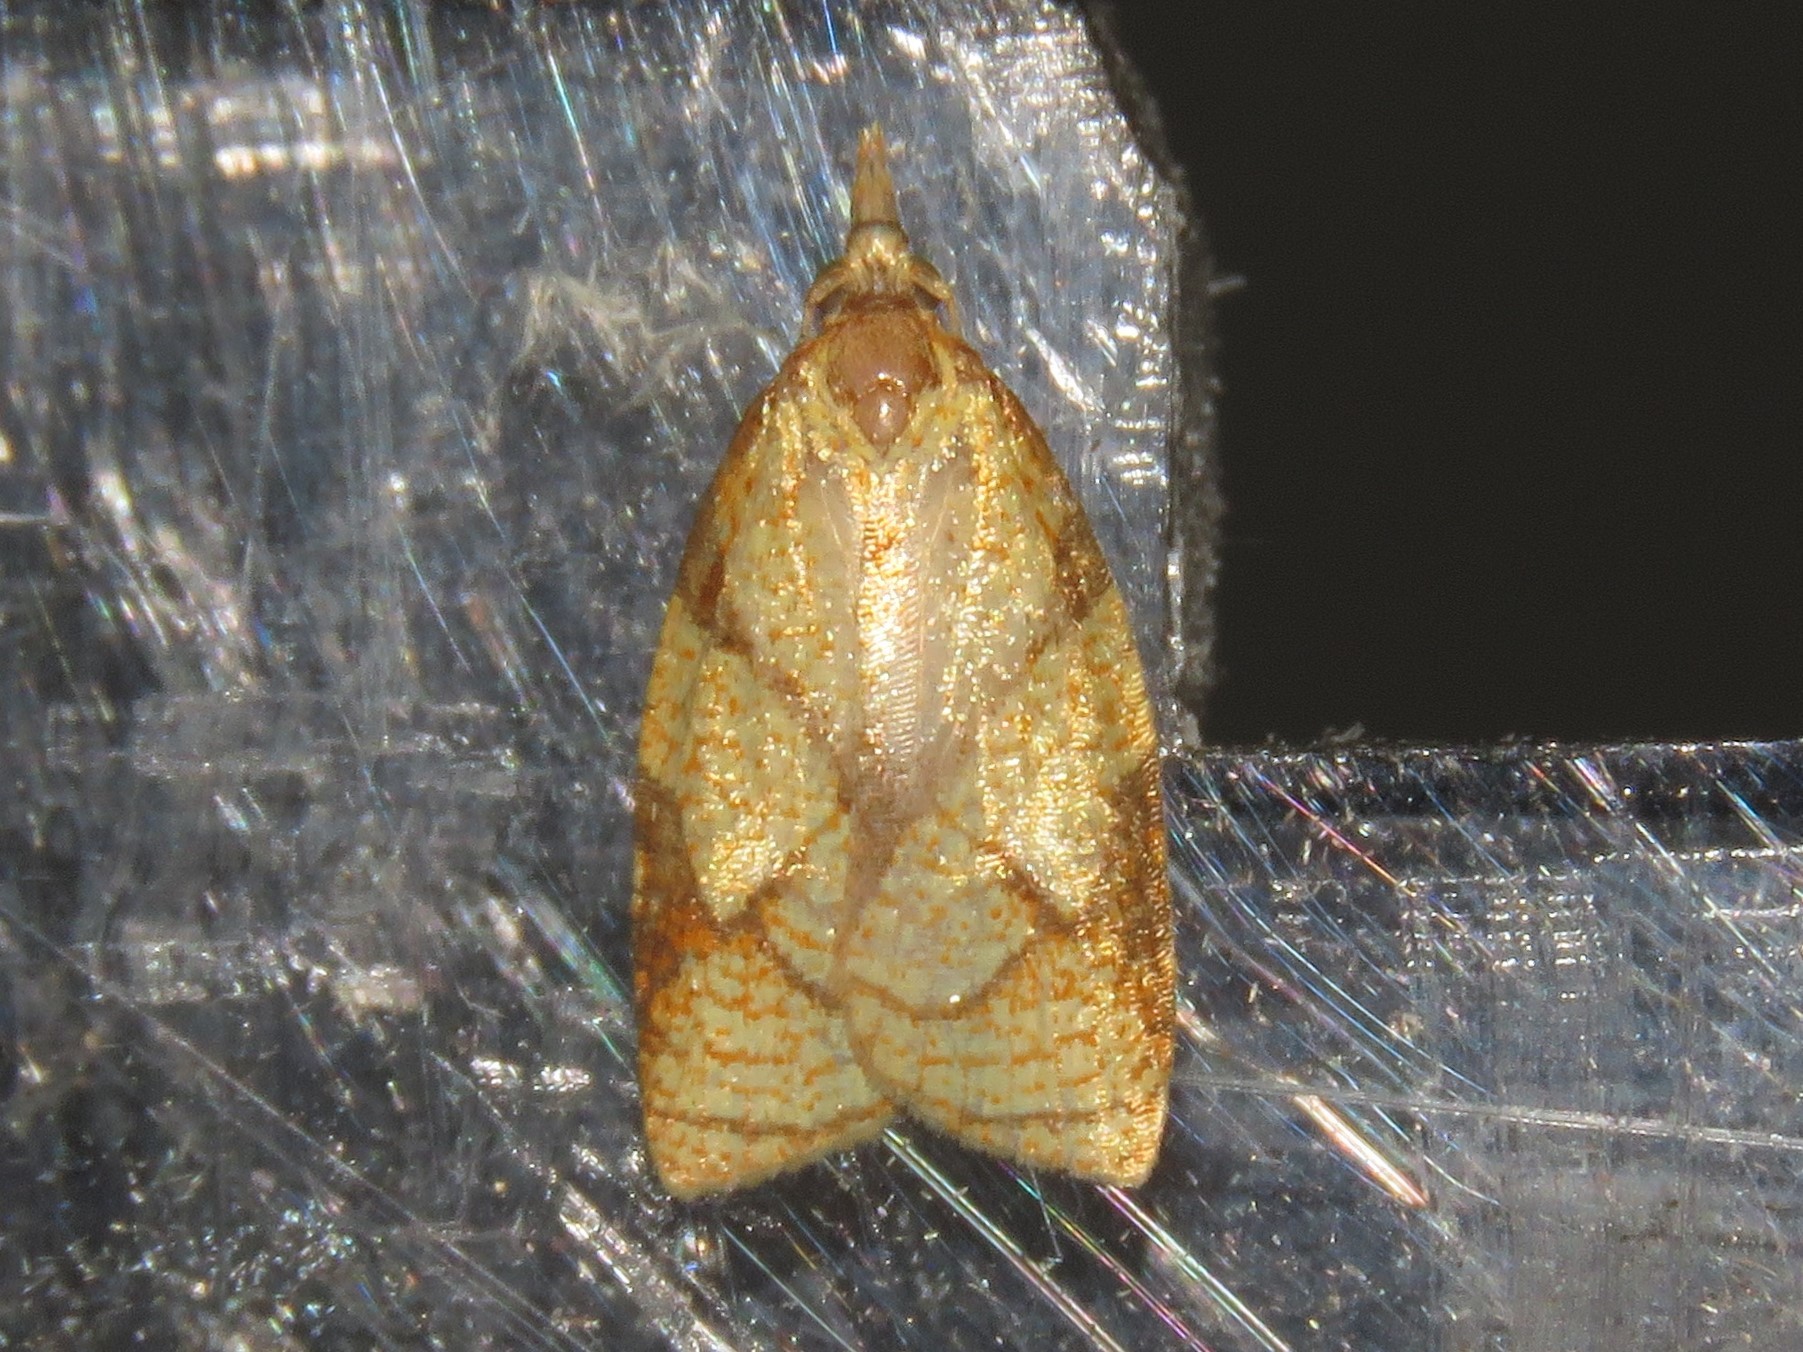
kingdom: Animalia
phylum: Arthropoda
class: Insecta
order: Lepidoptera
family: Tortricidae
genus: Cenopis
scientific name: Cenopis reticulatana
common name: Reticulated fruitworm moth
